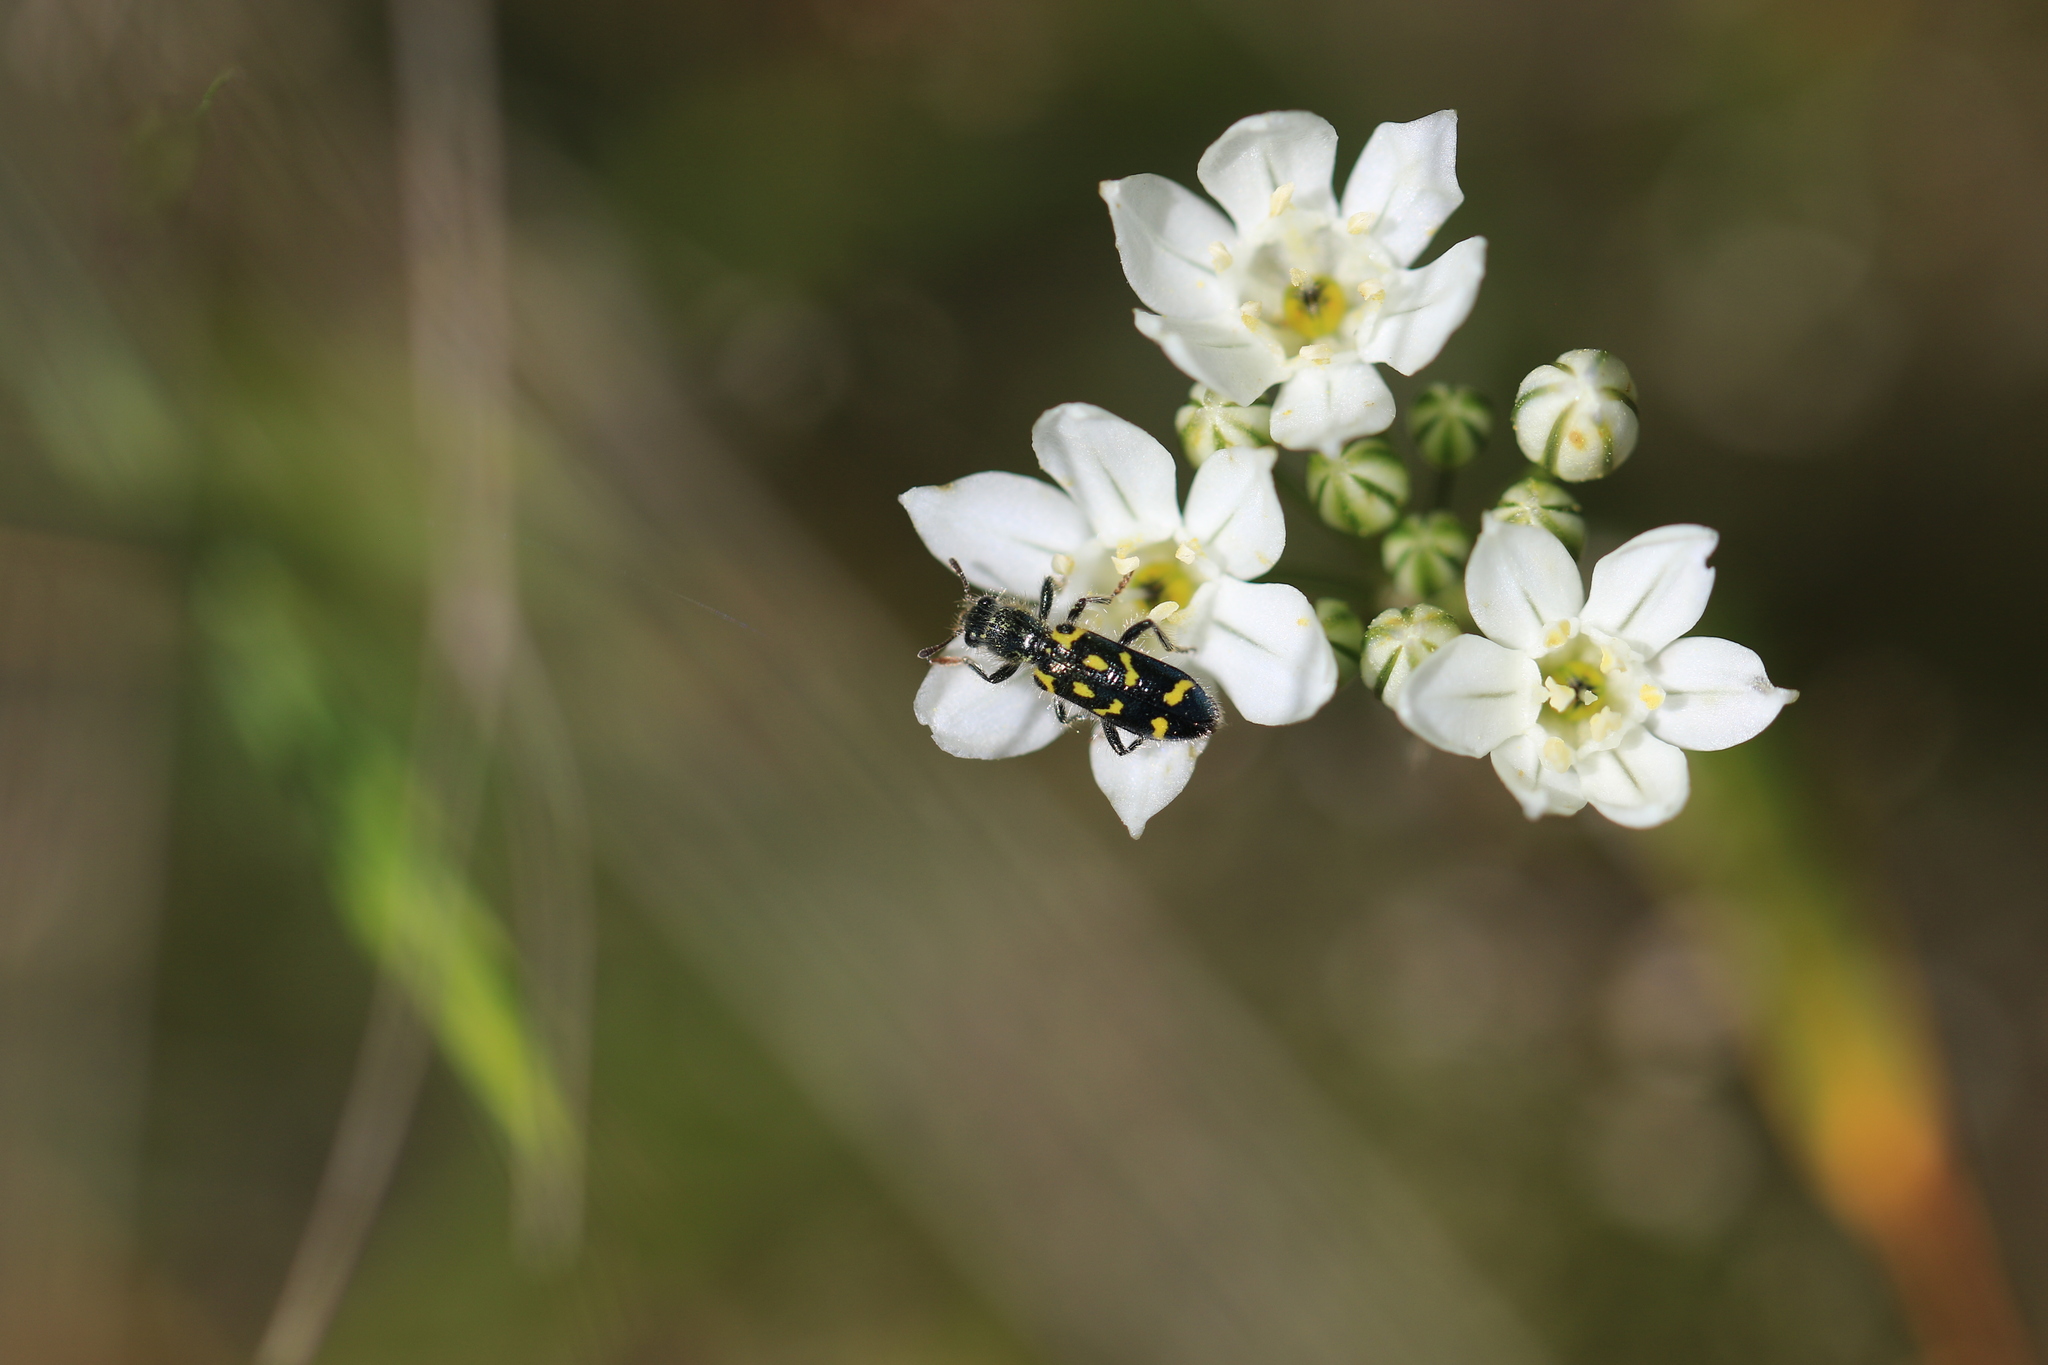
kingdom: Animalia
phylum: Arthropoda
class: Insecta
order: Coleoptera
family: Cleridae
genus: Trichodes
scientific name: Trichodes ornatus
